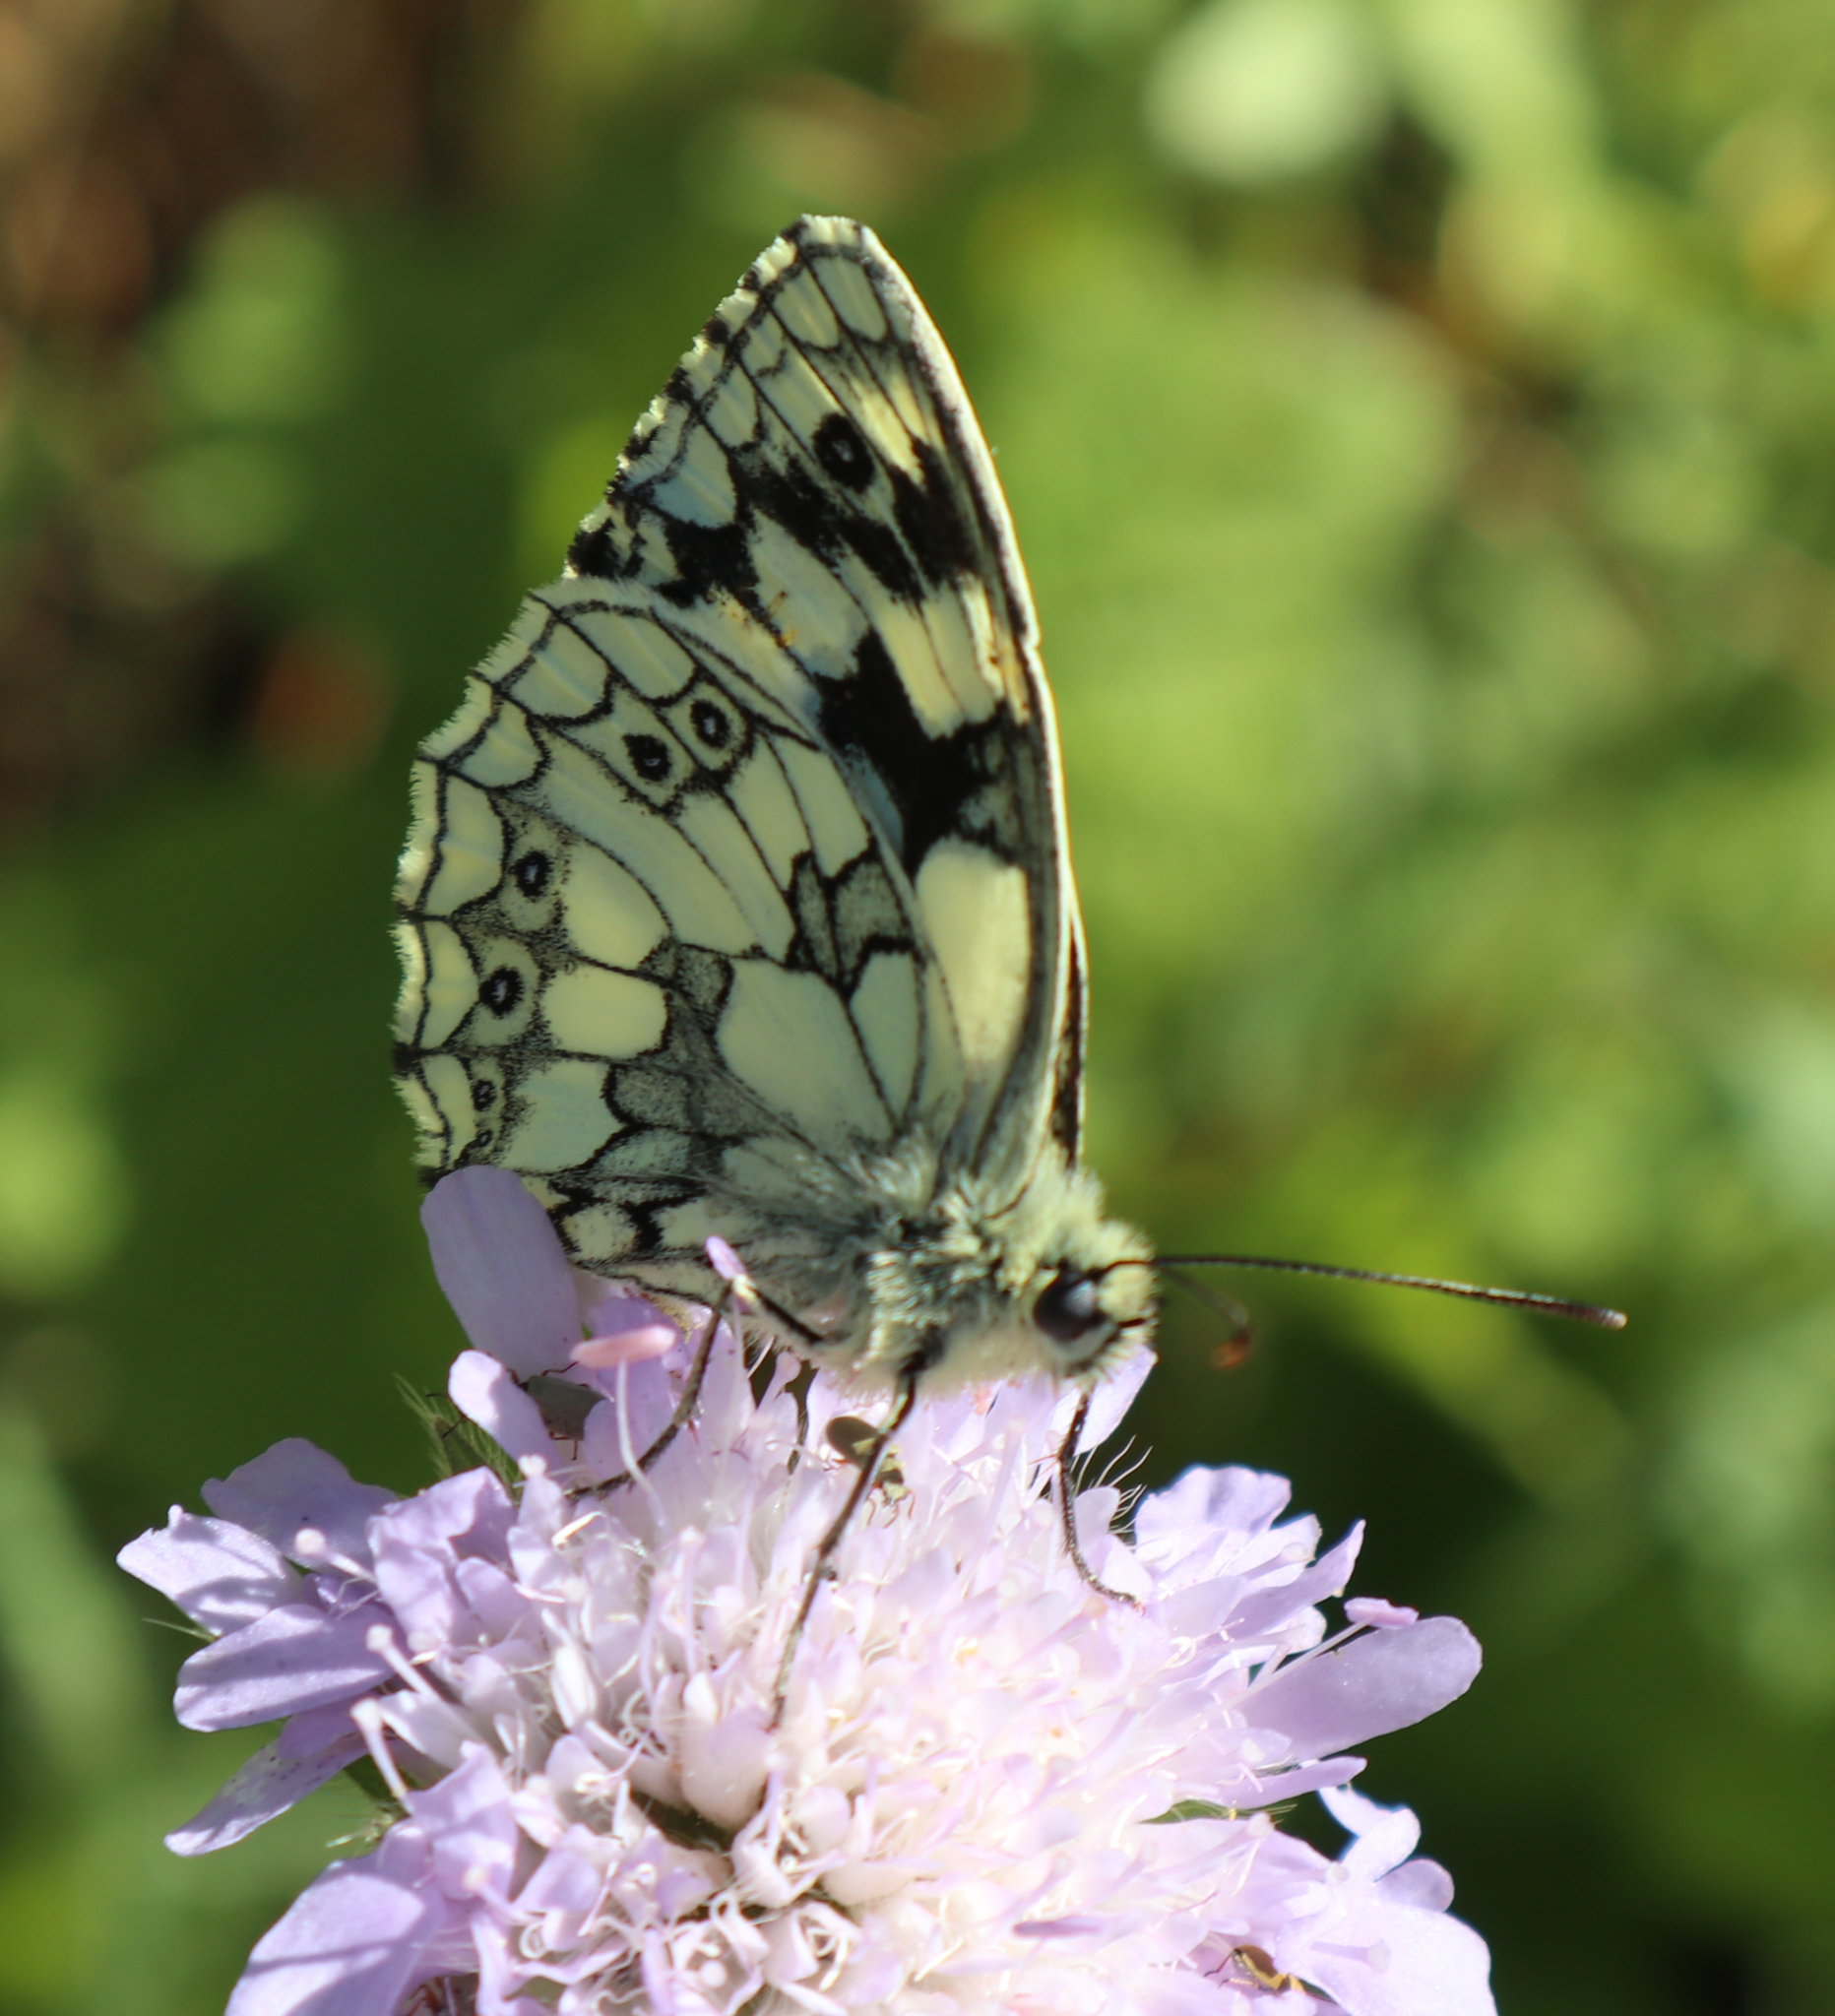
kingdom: Animalia
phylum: Arthropoda
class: Insecta
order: Lepidoptera
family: Nymphalidae
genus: Melanargia
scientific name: Melanargia galathea
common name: Marbled white
